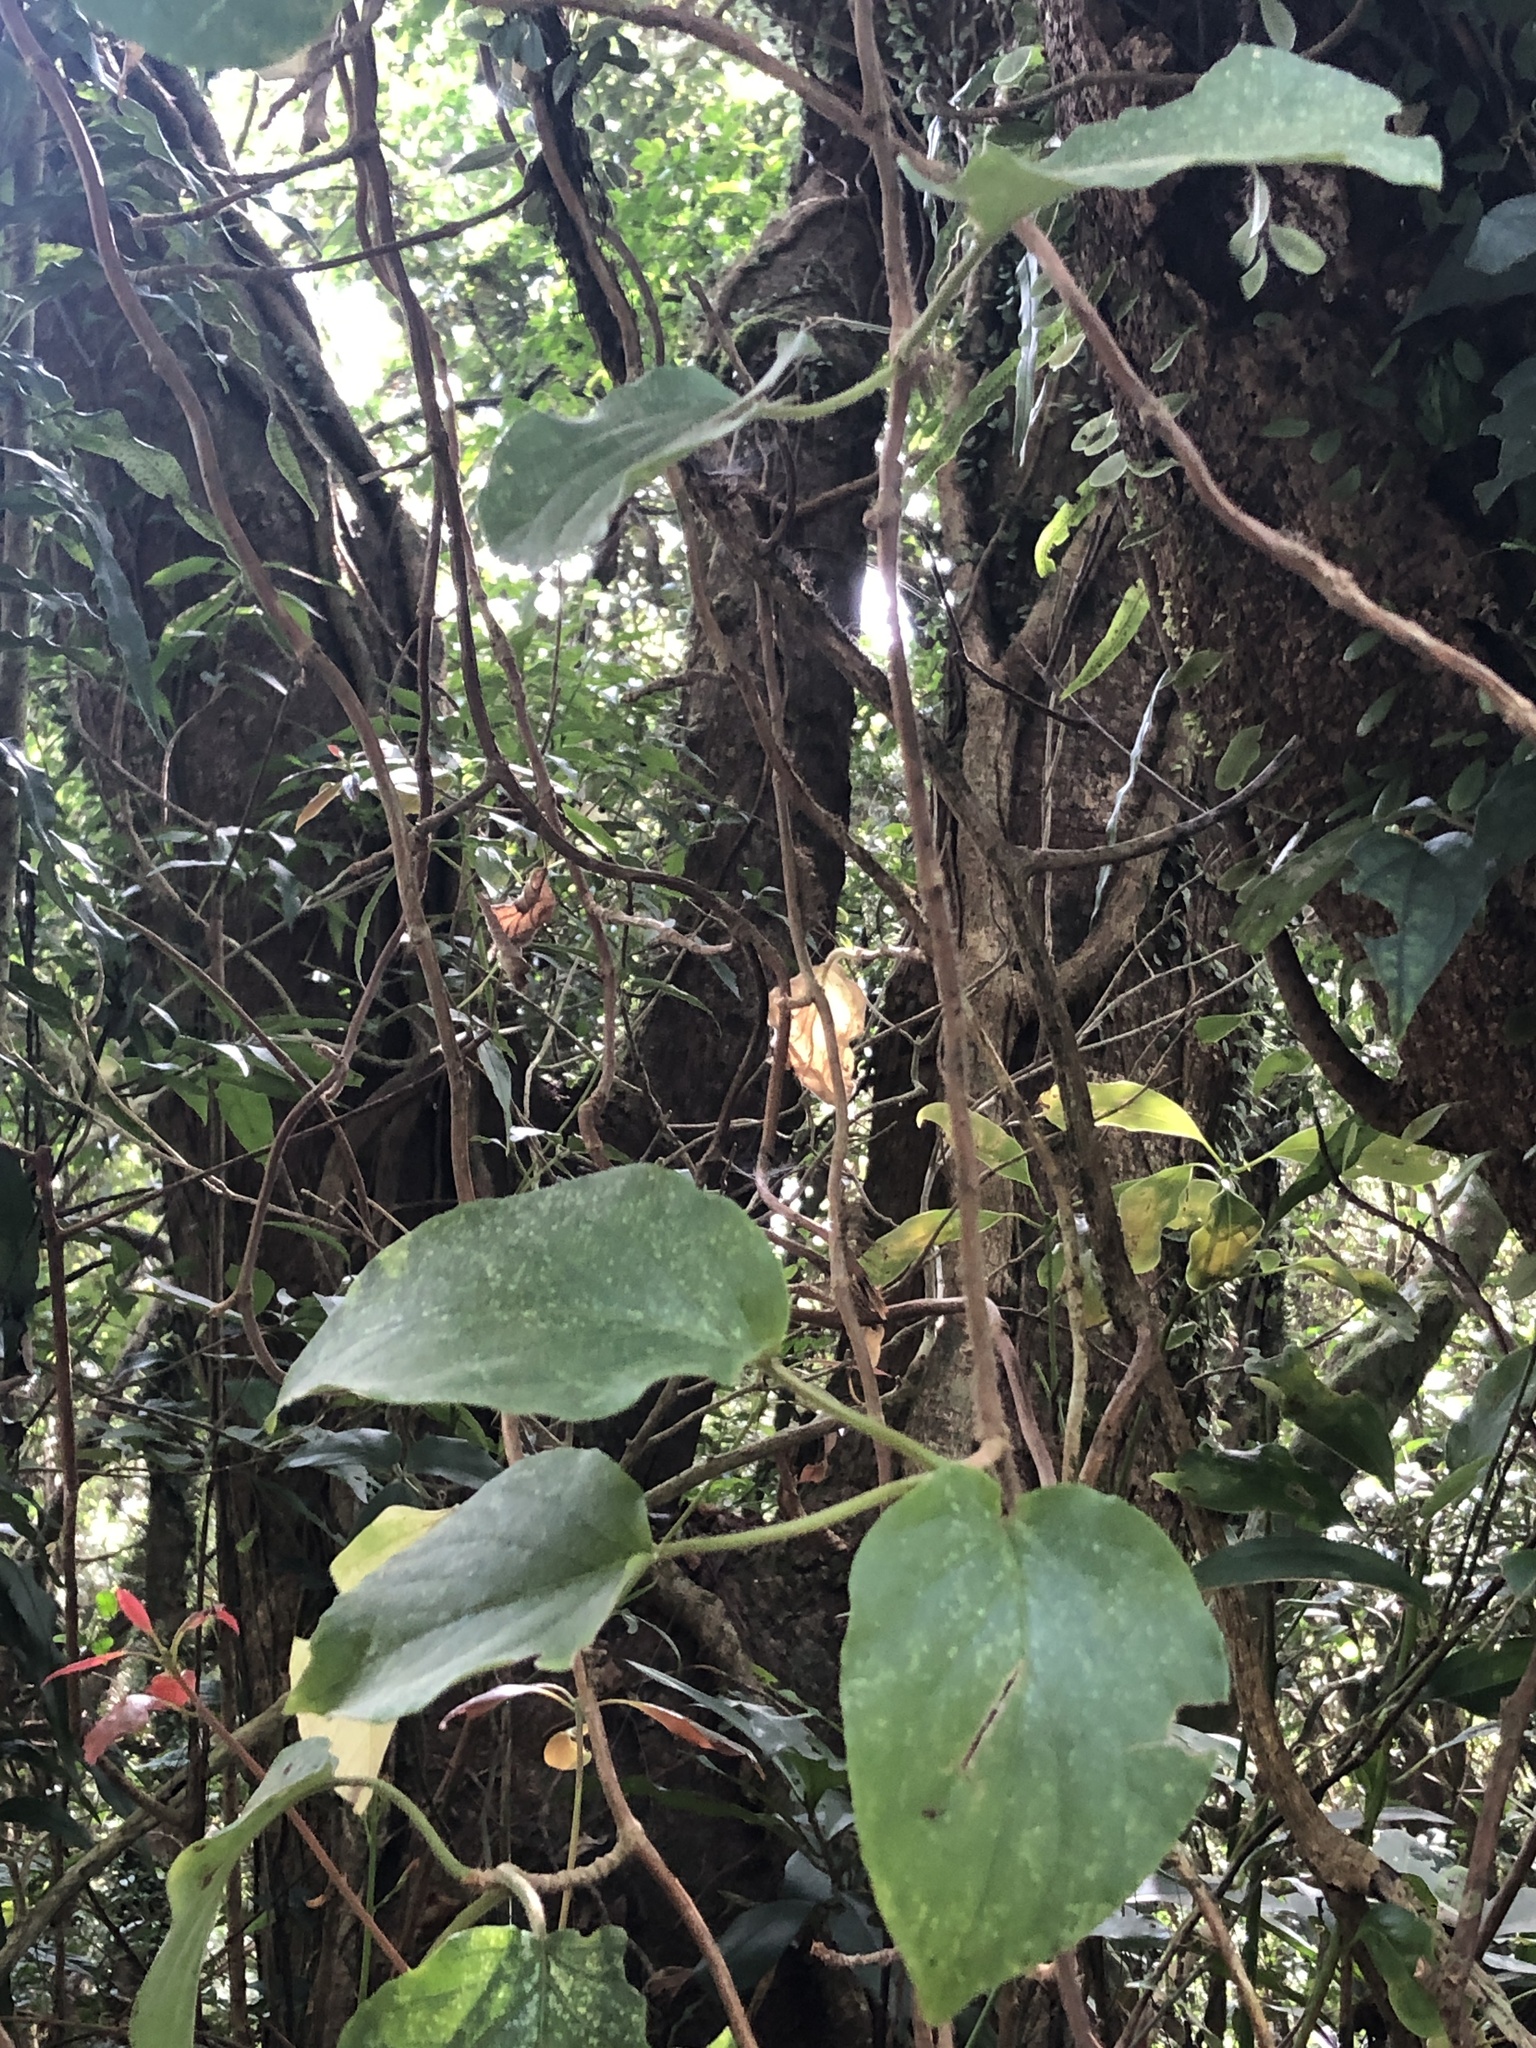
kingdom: Plantae
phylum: Tracheophyta
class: Magnoliopsida
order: Cornales
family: Hydrangeaceae
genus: Hydrangea
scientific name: Hydrangea fauriei
